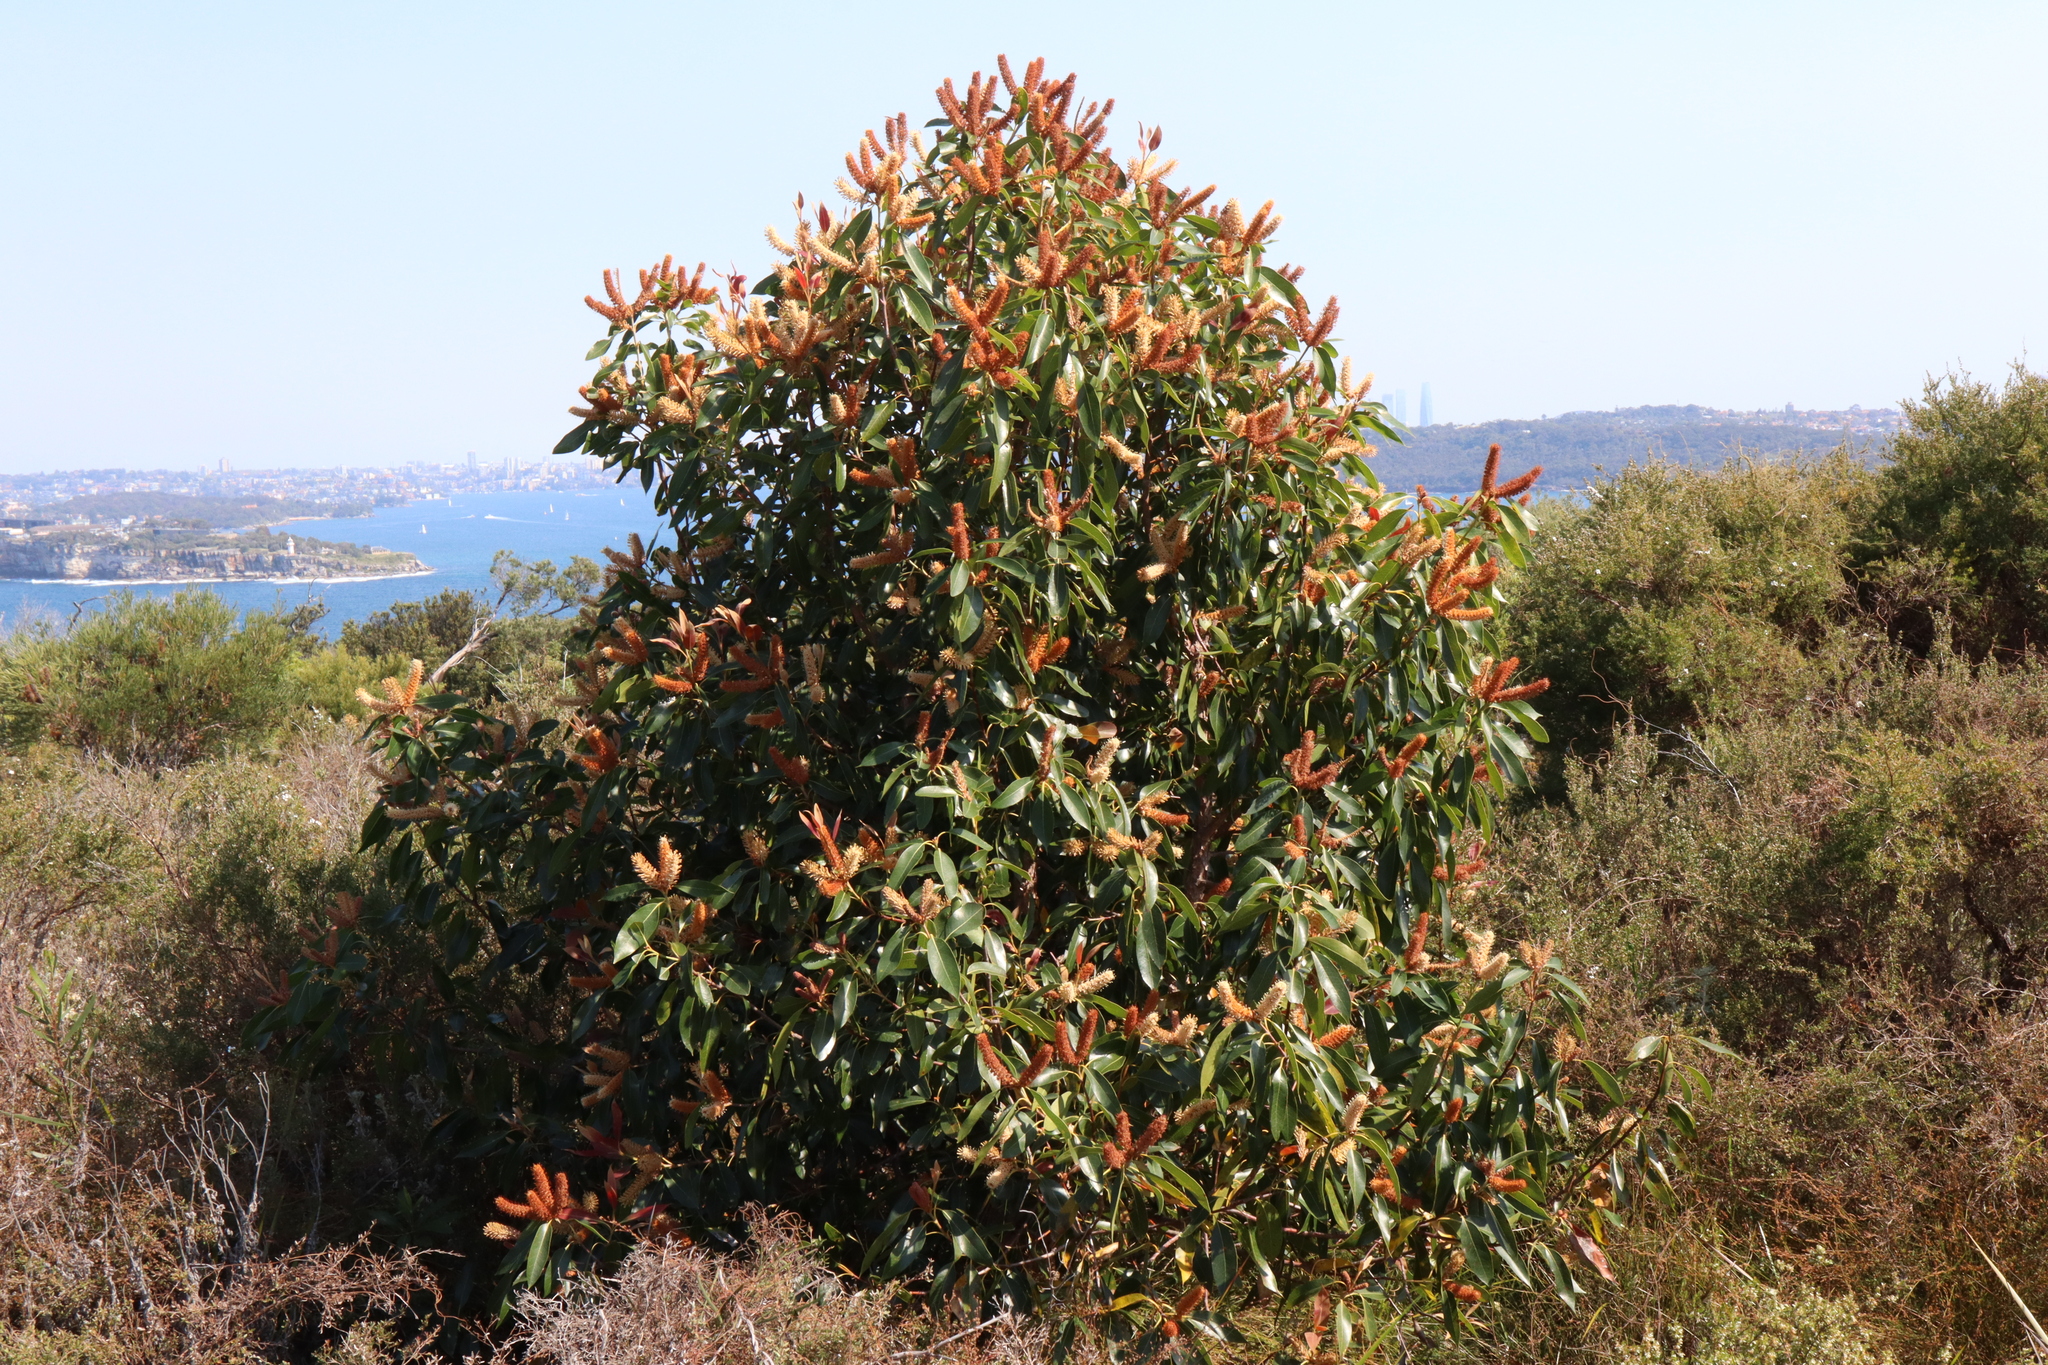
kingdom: Plantae
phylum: Tracheophyta
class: Magnoliopsida
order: Proteales
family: Proteaceae
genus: Xylomelum
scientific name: Xylomelum pyriforme
